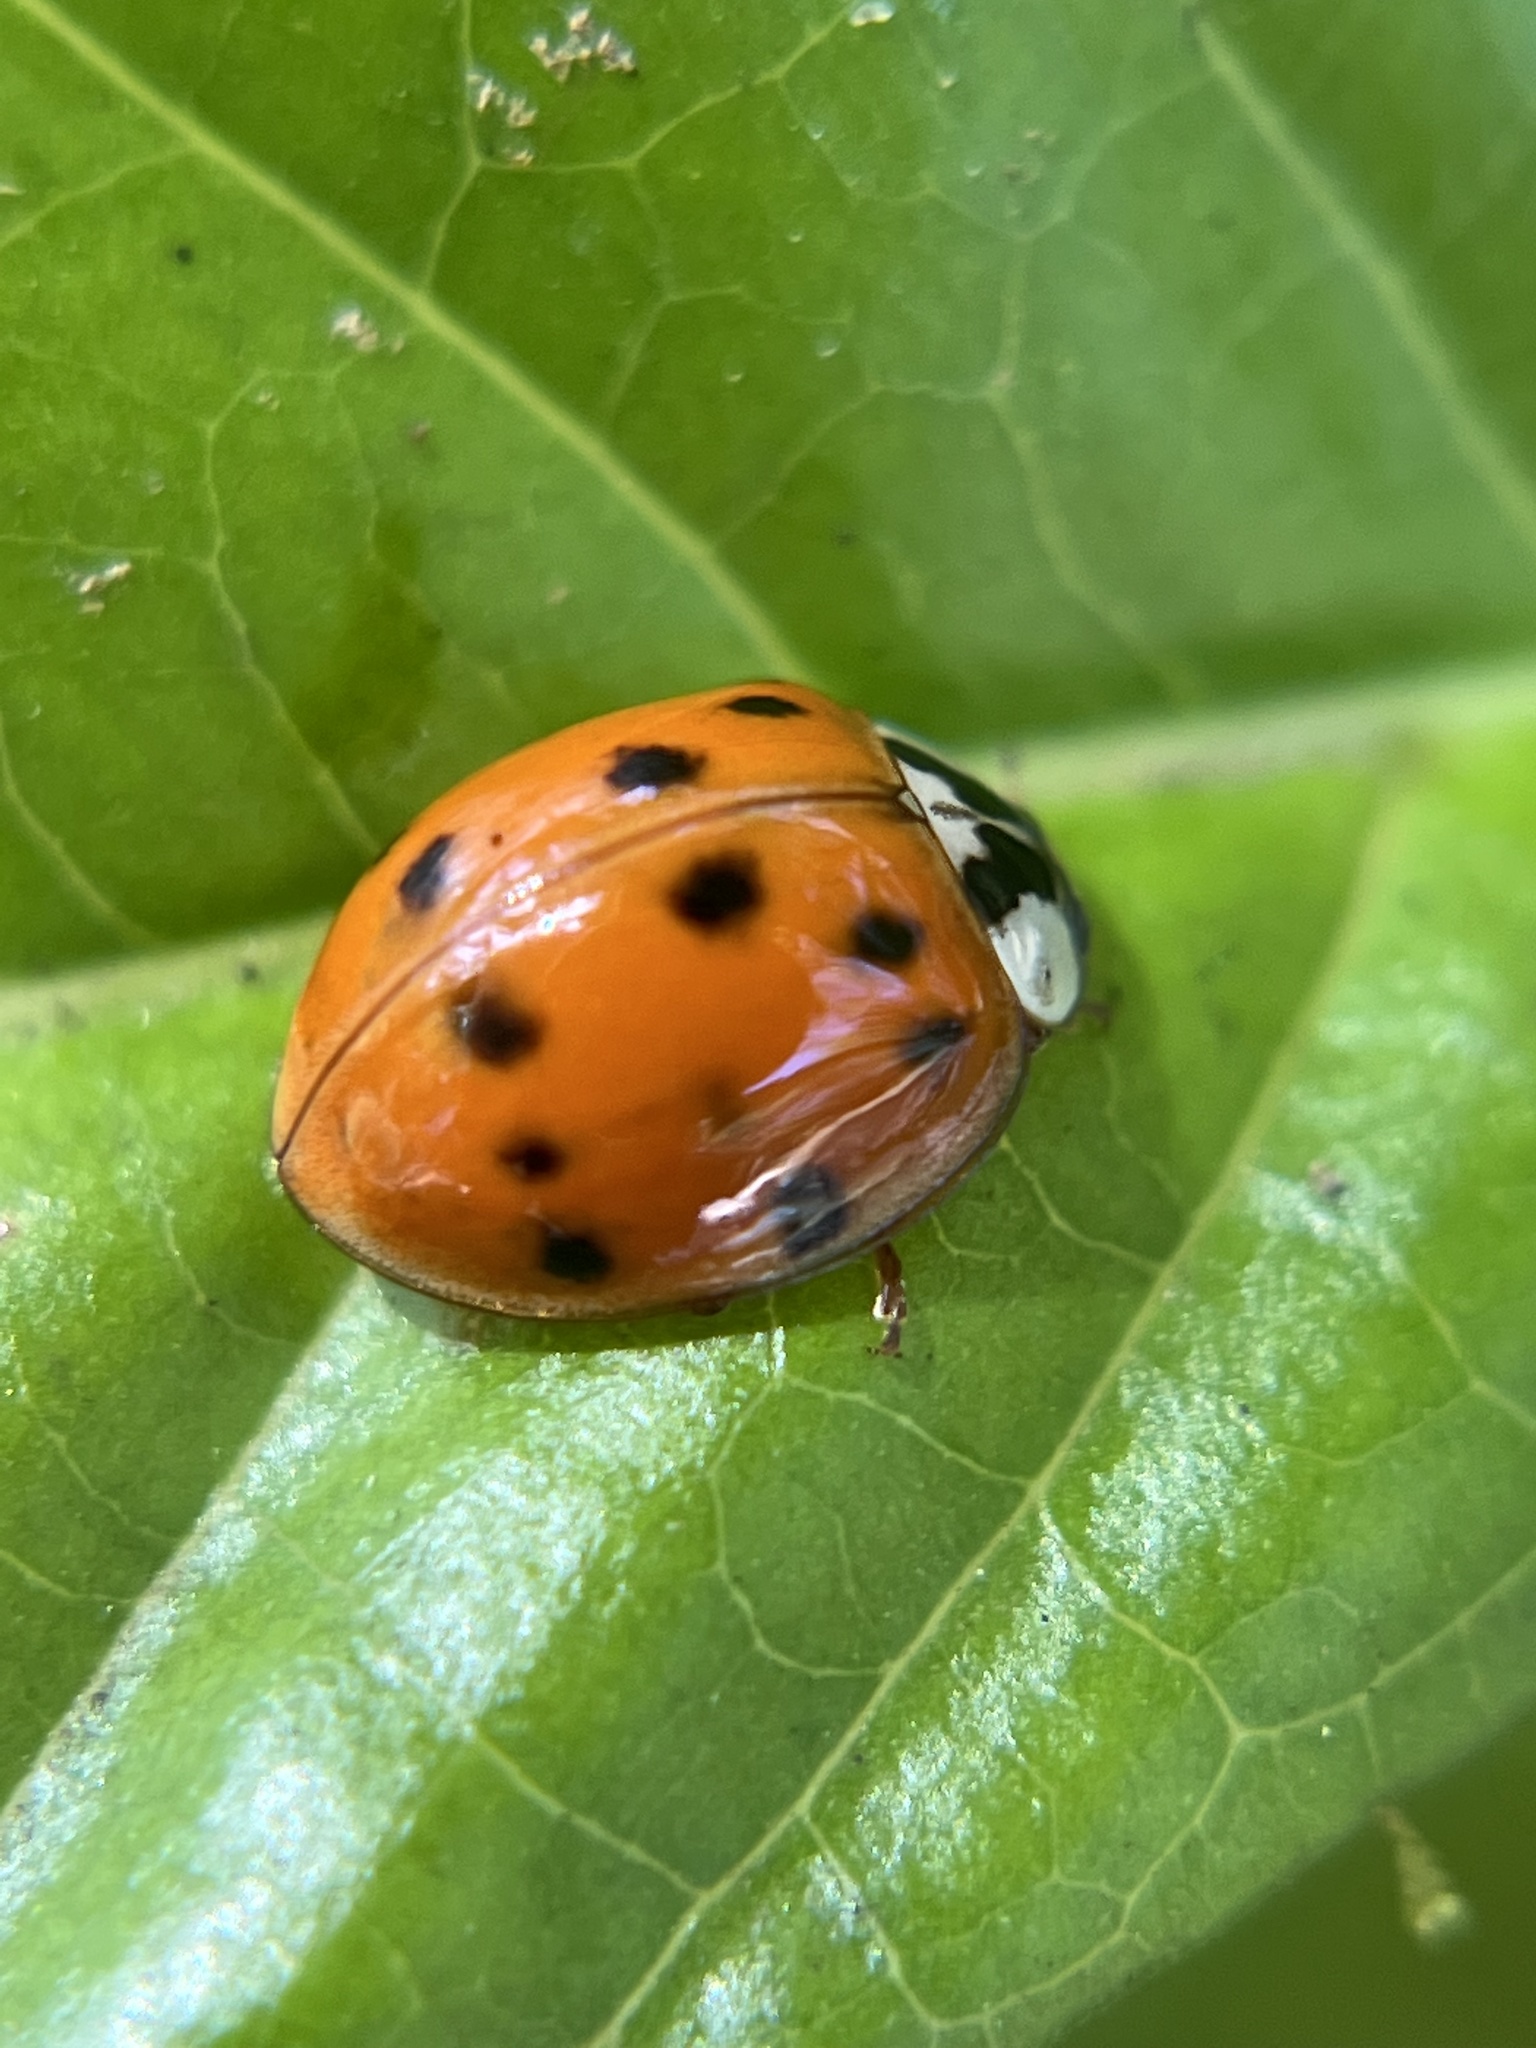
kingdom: Animalia
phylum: Arthropoda
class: Insecta
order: Coleoptera
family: Coccinellidae
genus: Harmonia
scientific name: Harmonia axyridis
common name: Harlequin ladybird
